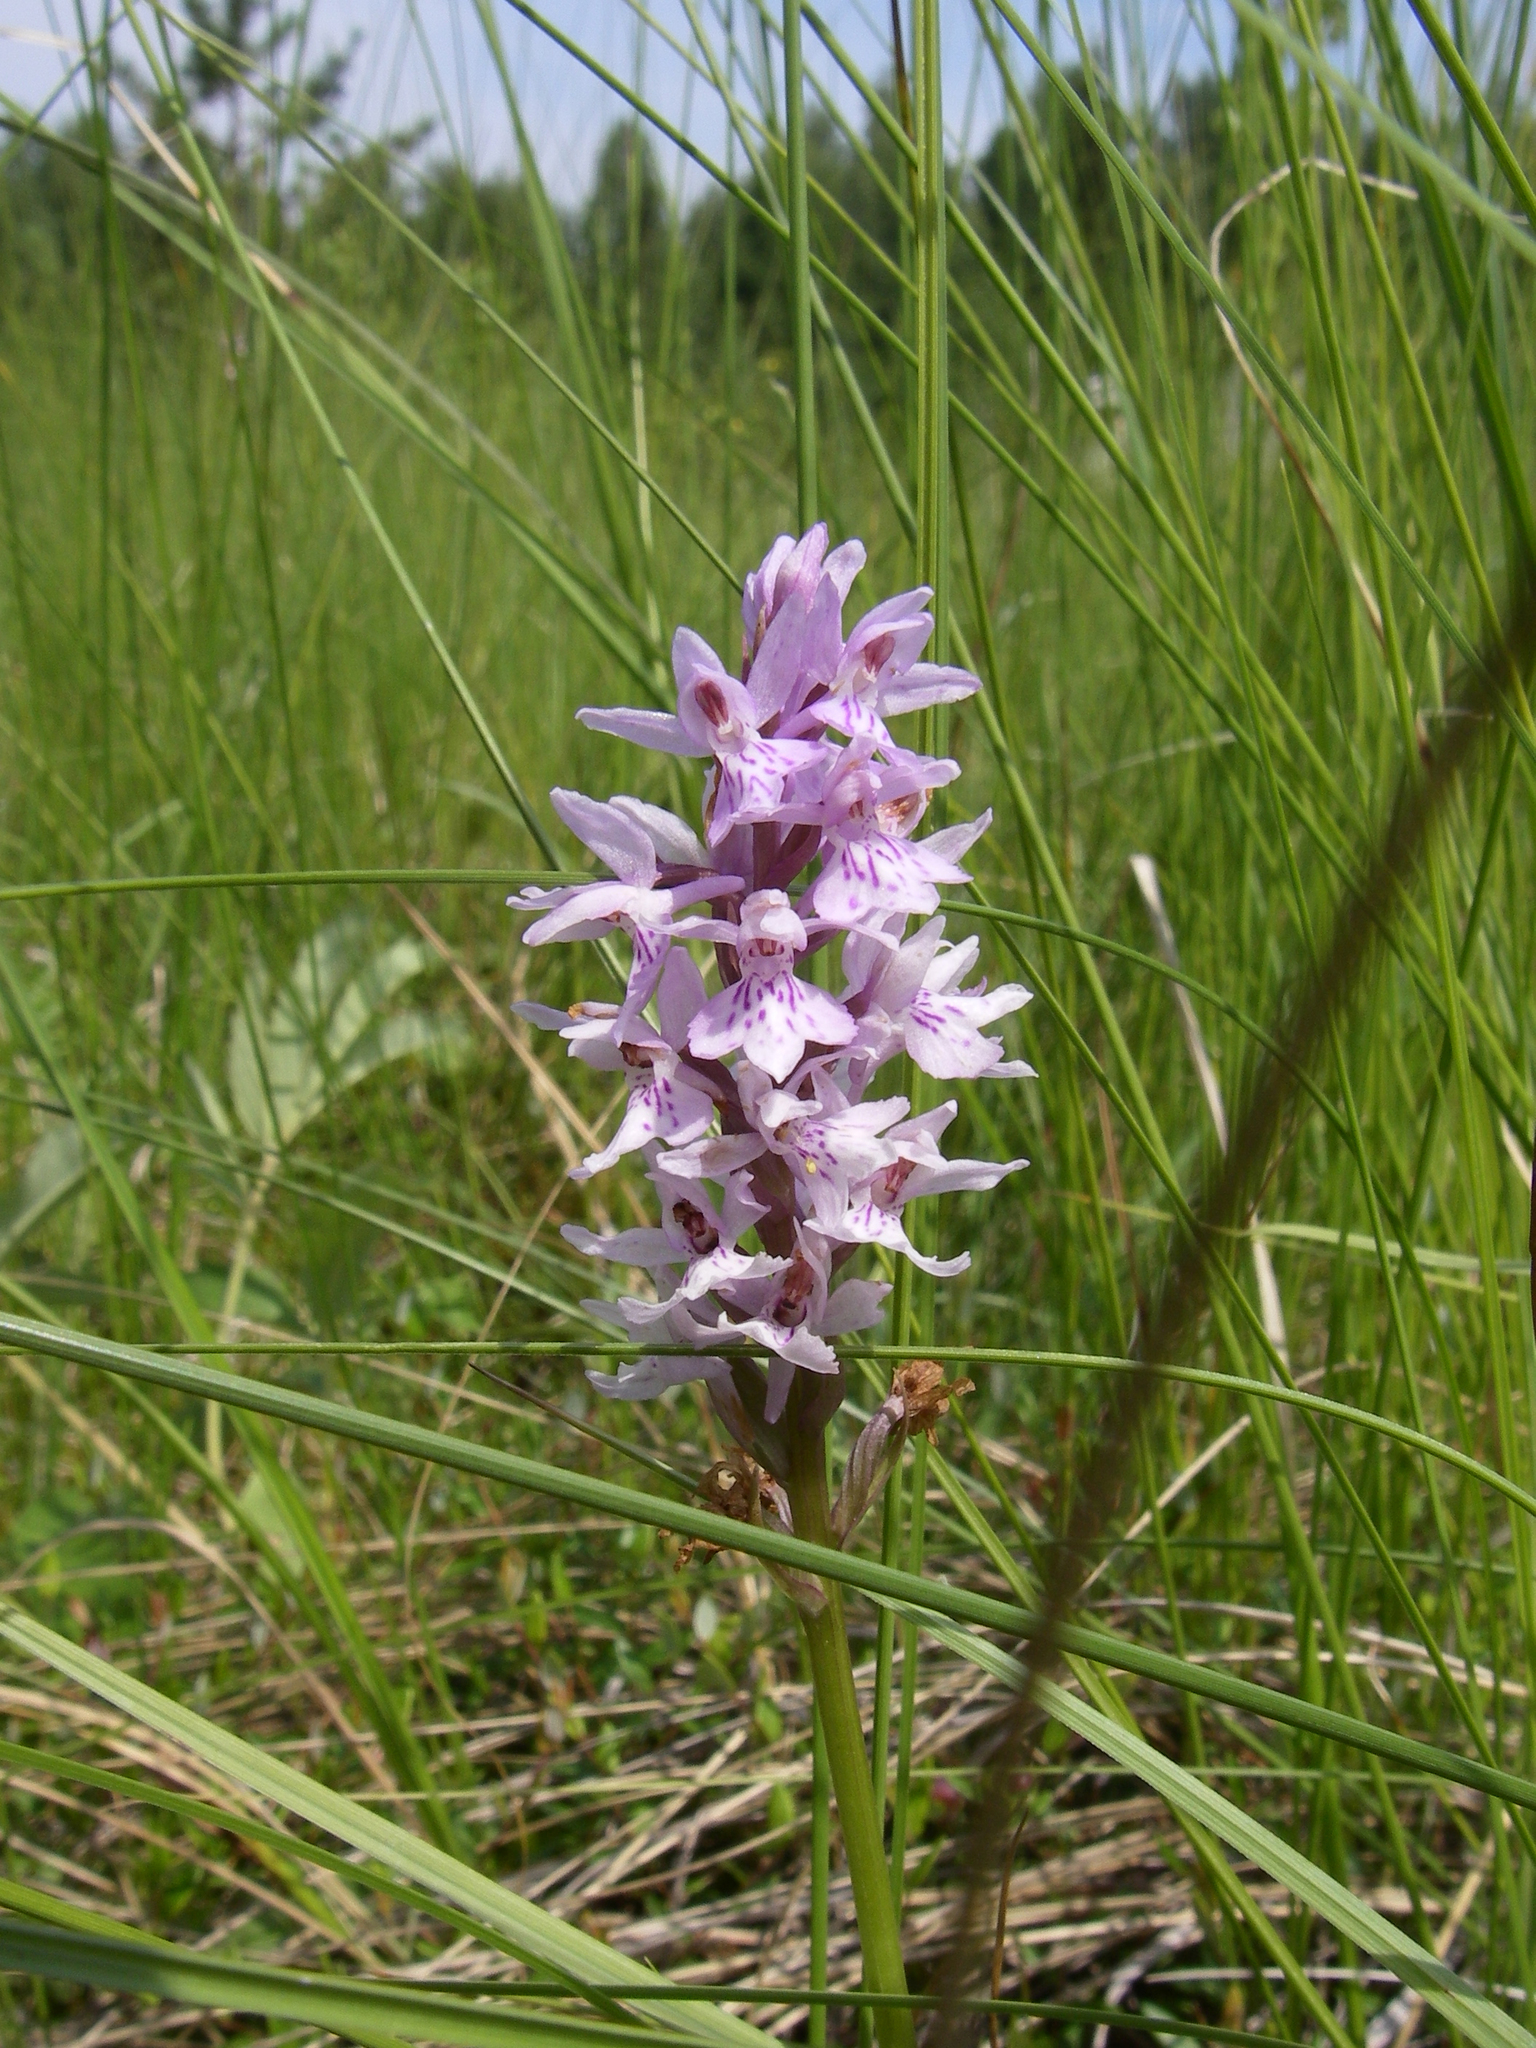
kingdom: Plantae
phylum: Tracheophyta
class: Liliopsida
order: Asparagales
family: Orchidaceae
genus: Dactylorhiza
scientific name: Dactylorhiza maculata
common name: Heath spotted-orchid
